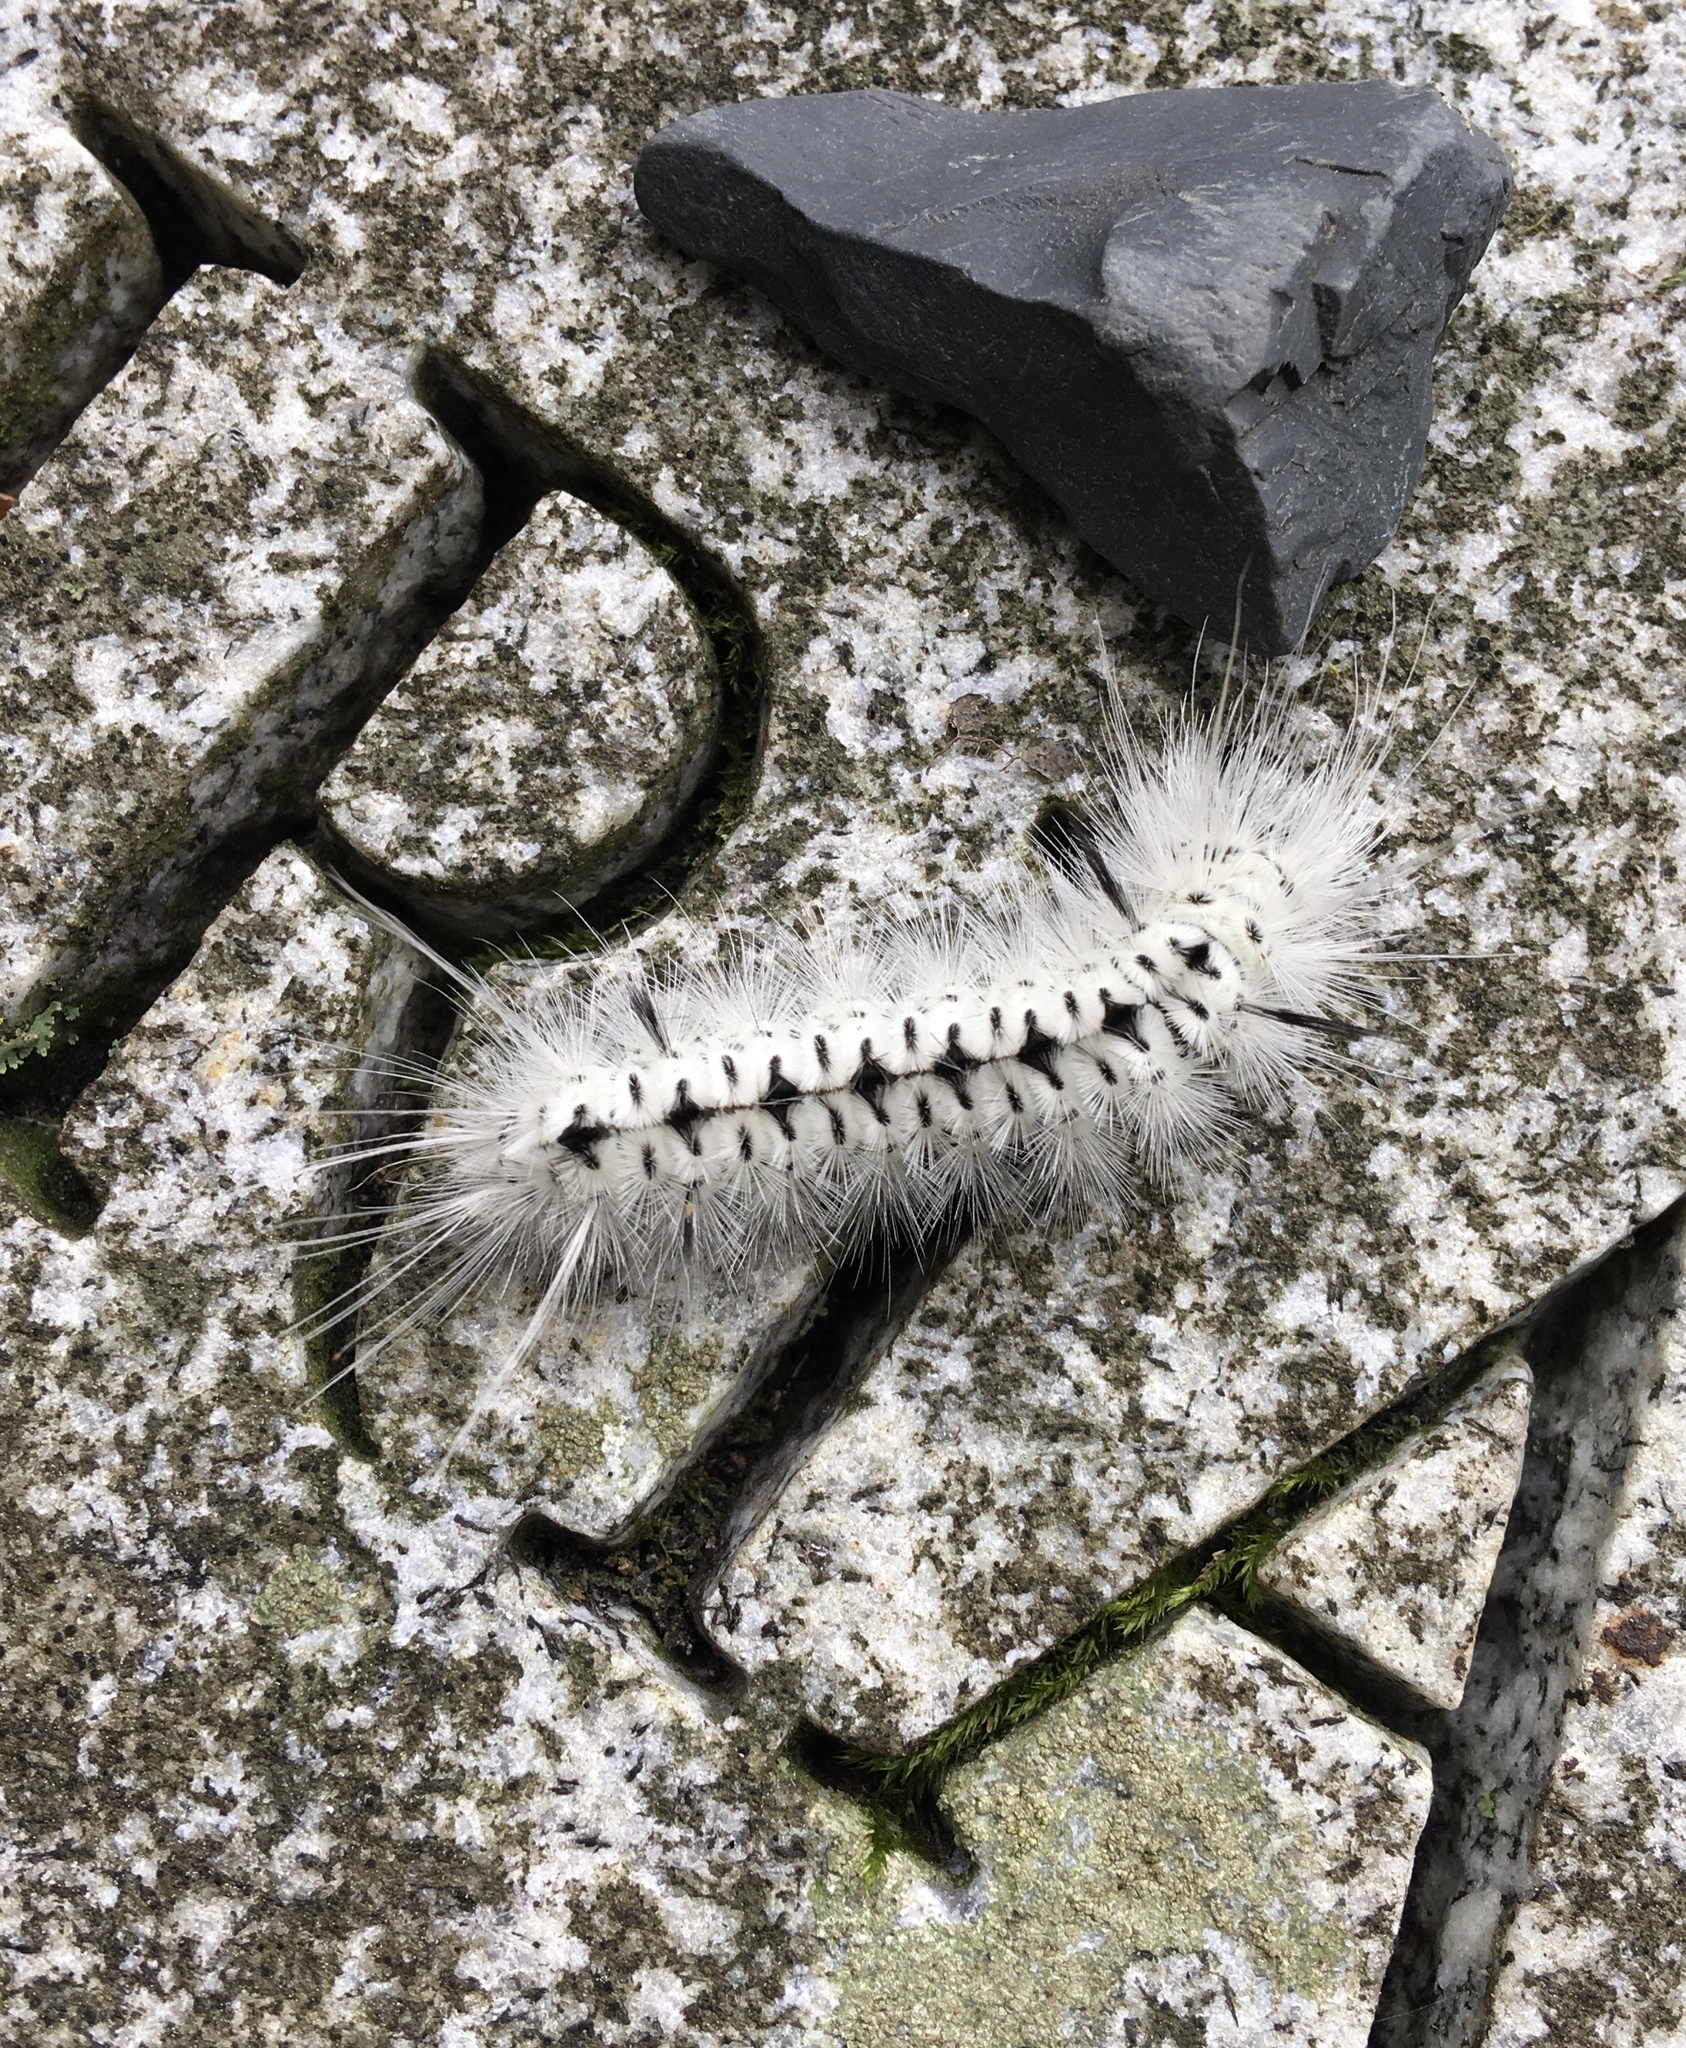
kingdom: Animalia
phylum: Arthropoda
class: Insecta
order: Lepidoptera
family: Erebidae
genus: Lophocampa
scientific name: Lophocampa caryae
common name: Hickory tussock moth
